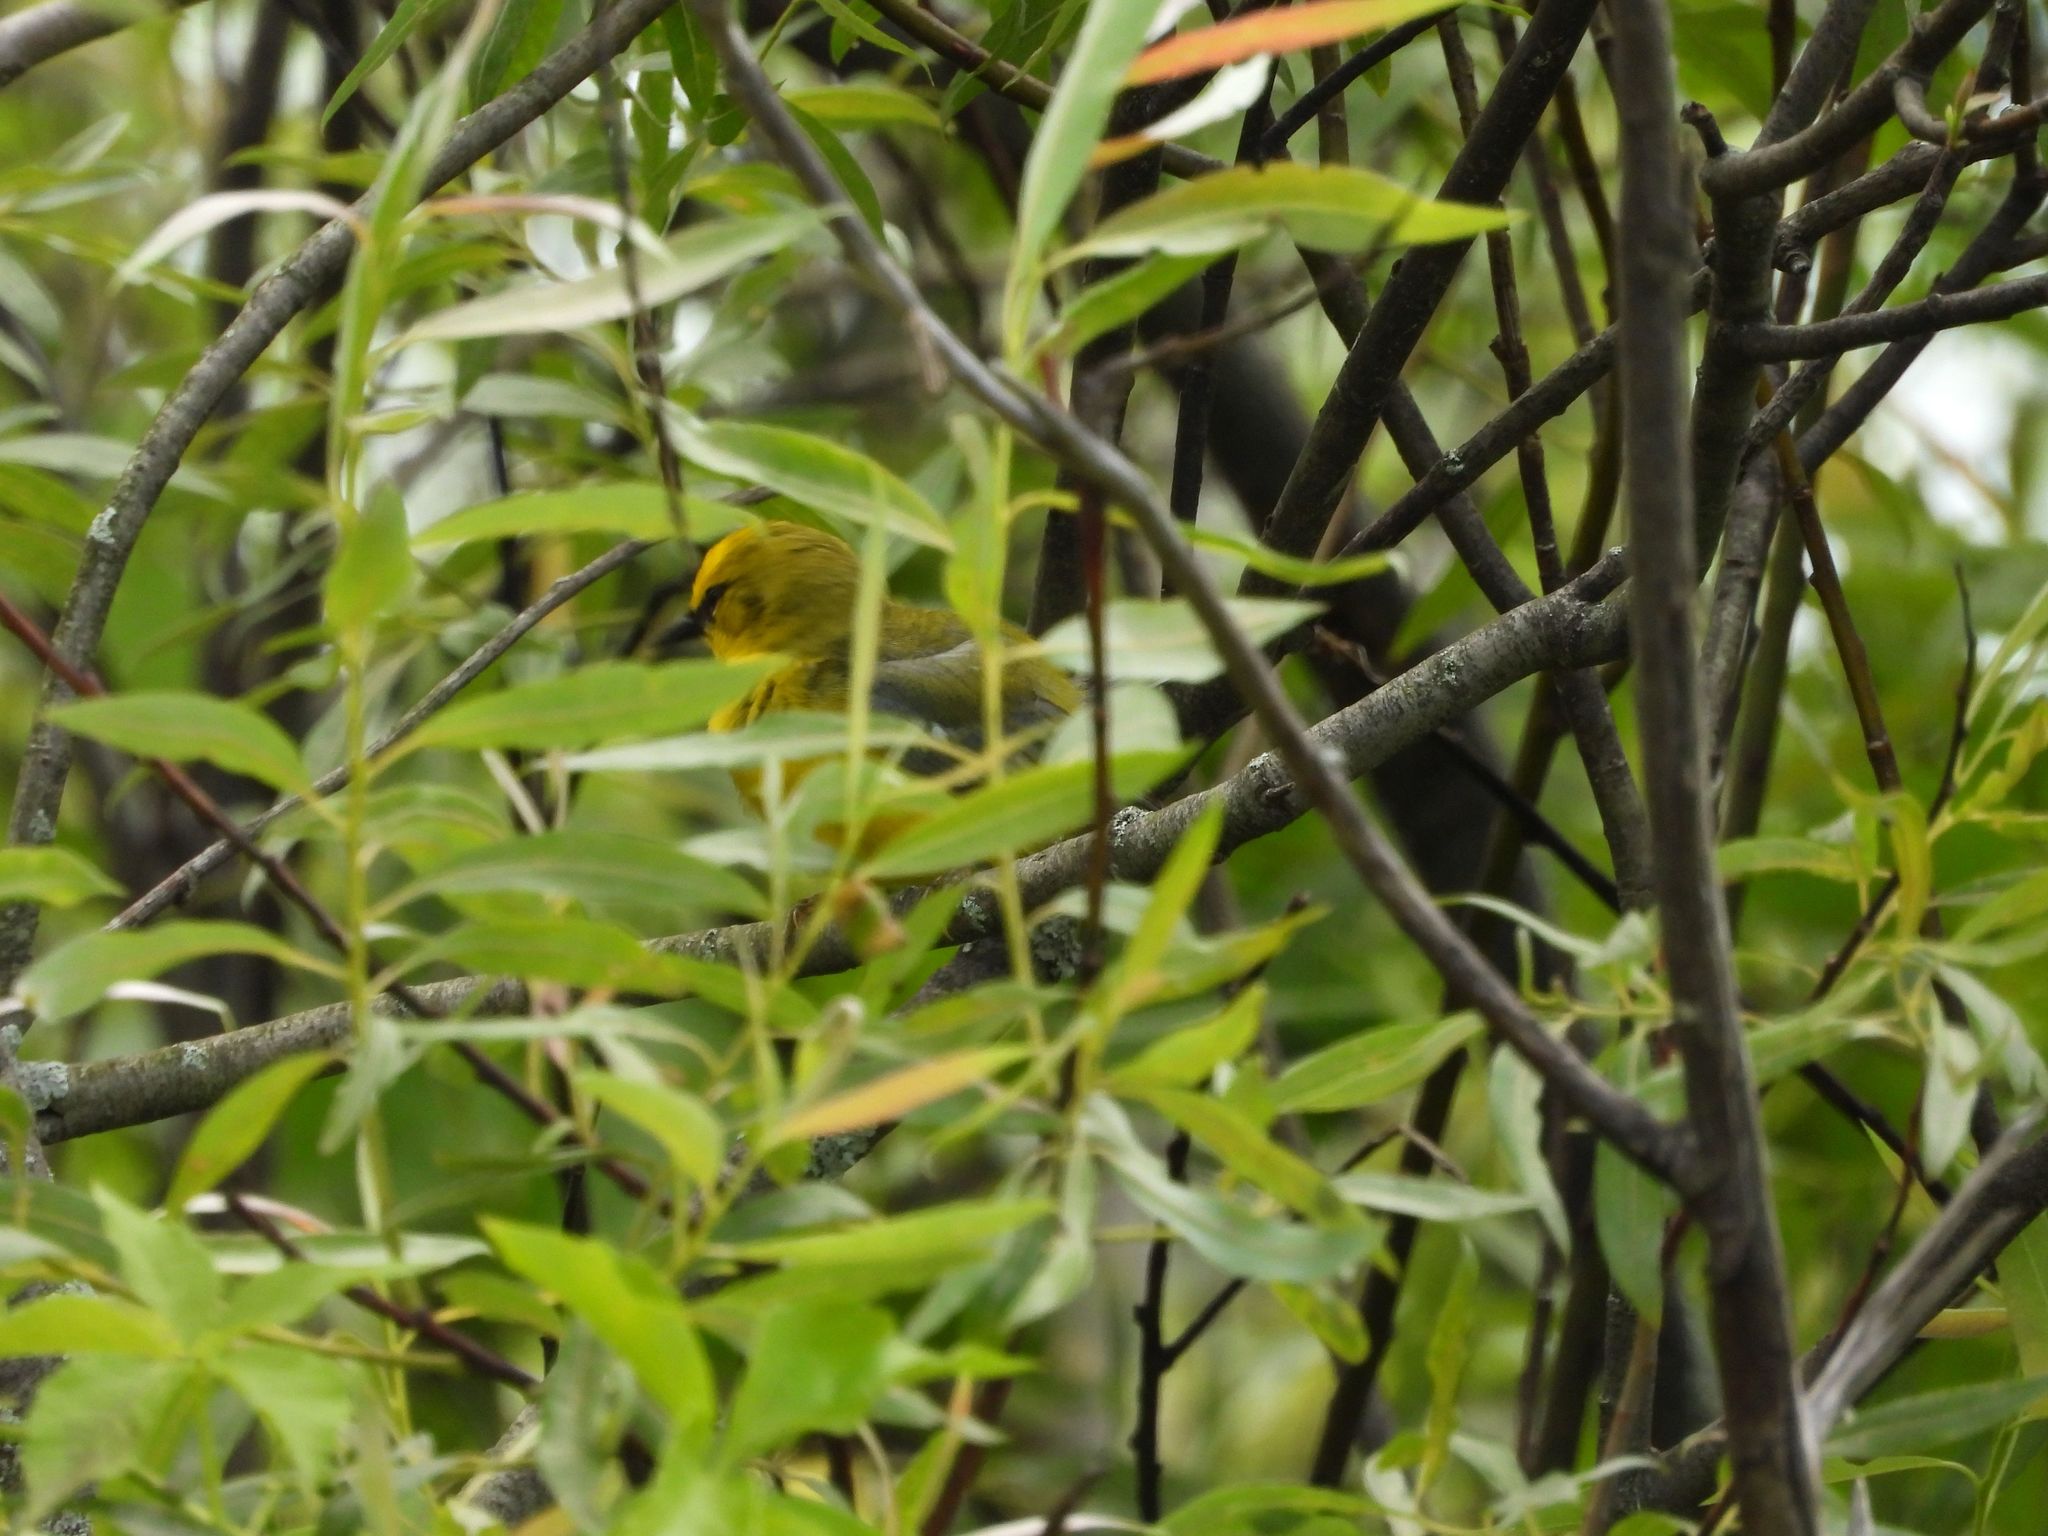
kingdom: Animalia
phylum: Chordata
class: Aves
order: Passeriformes
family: Parulidae
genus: Vermivora
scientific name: Vermivora cyanoptera
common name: Blue-winged warbler
